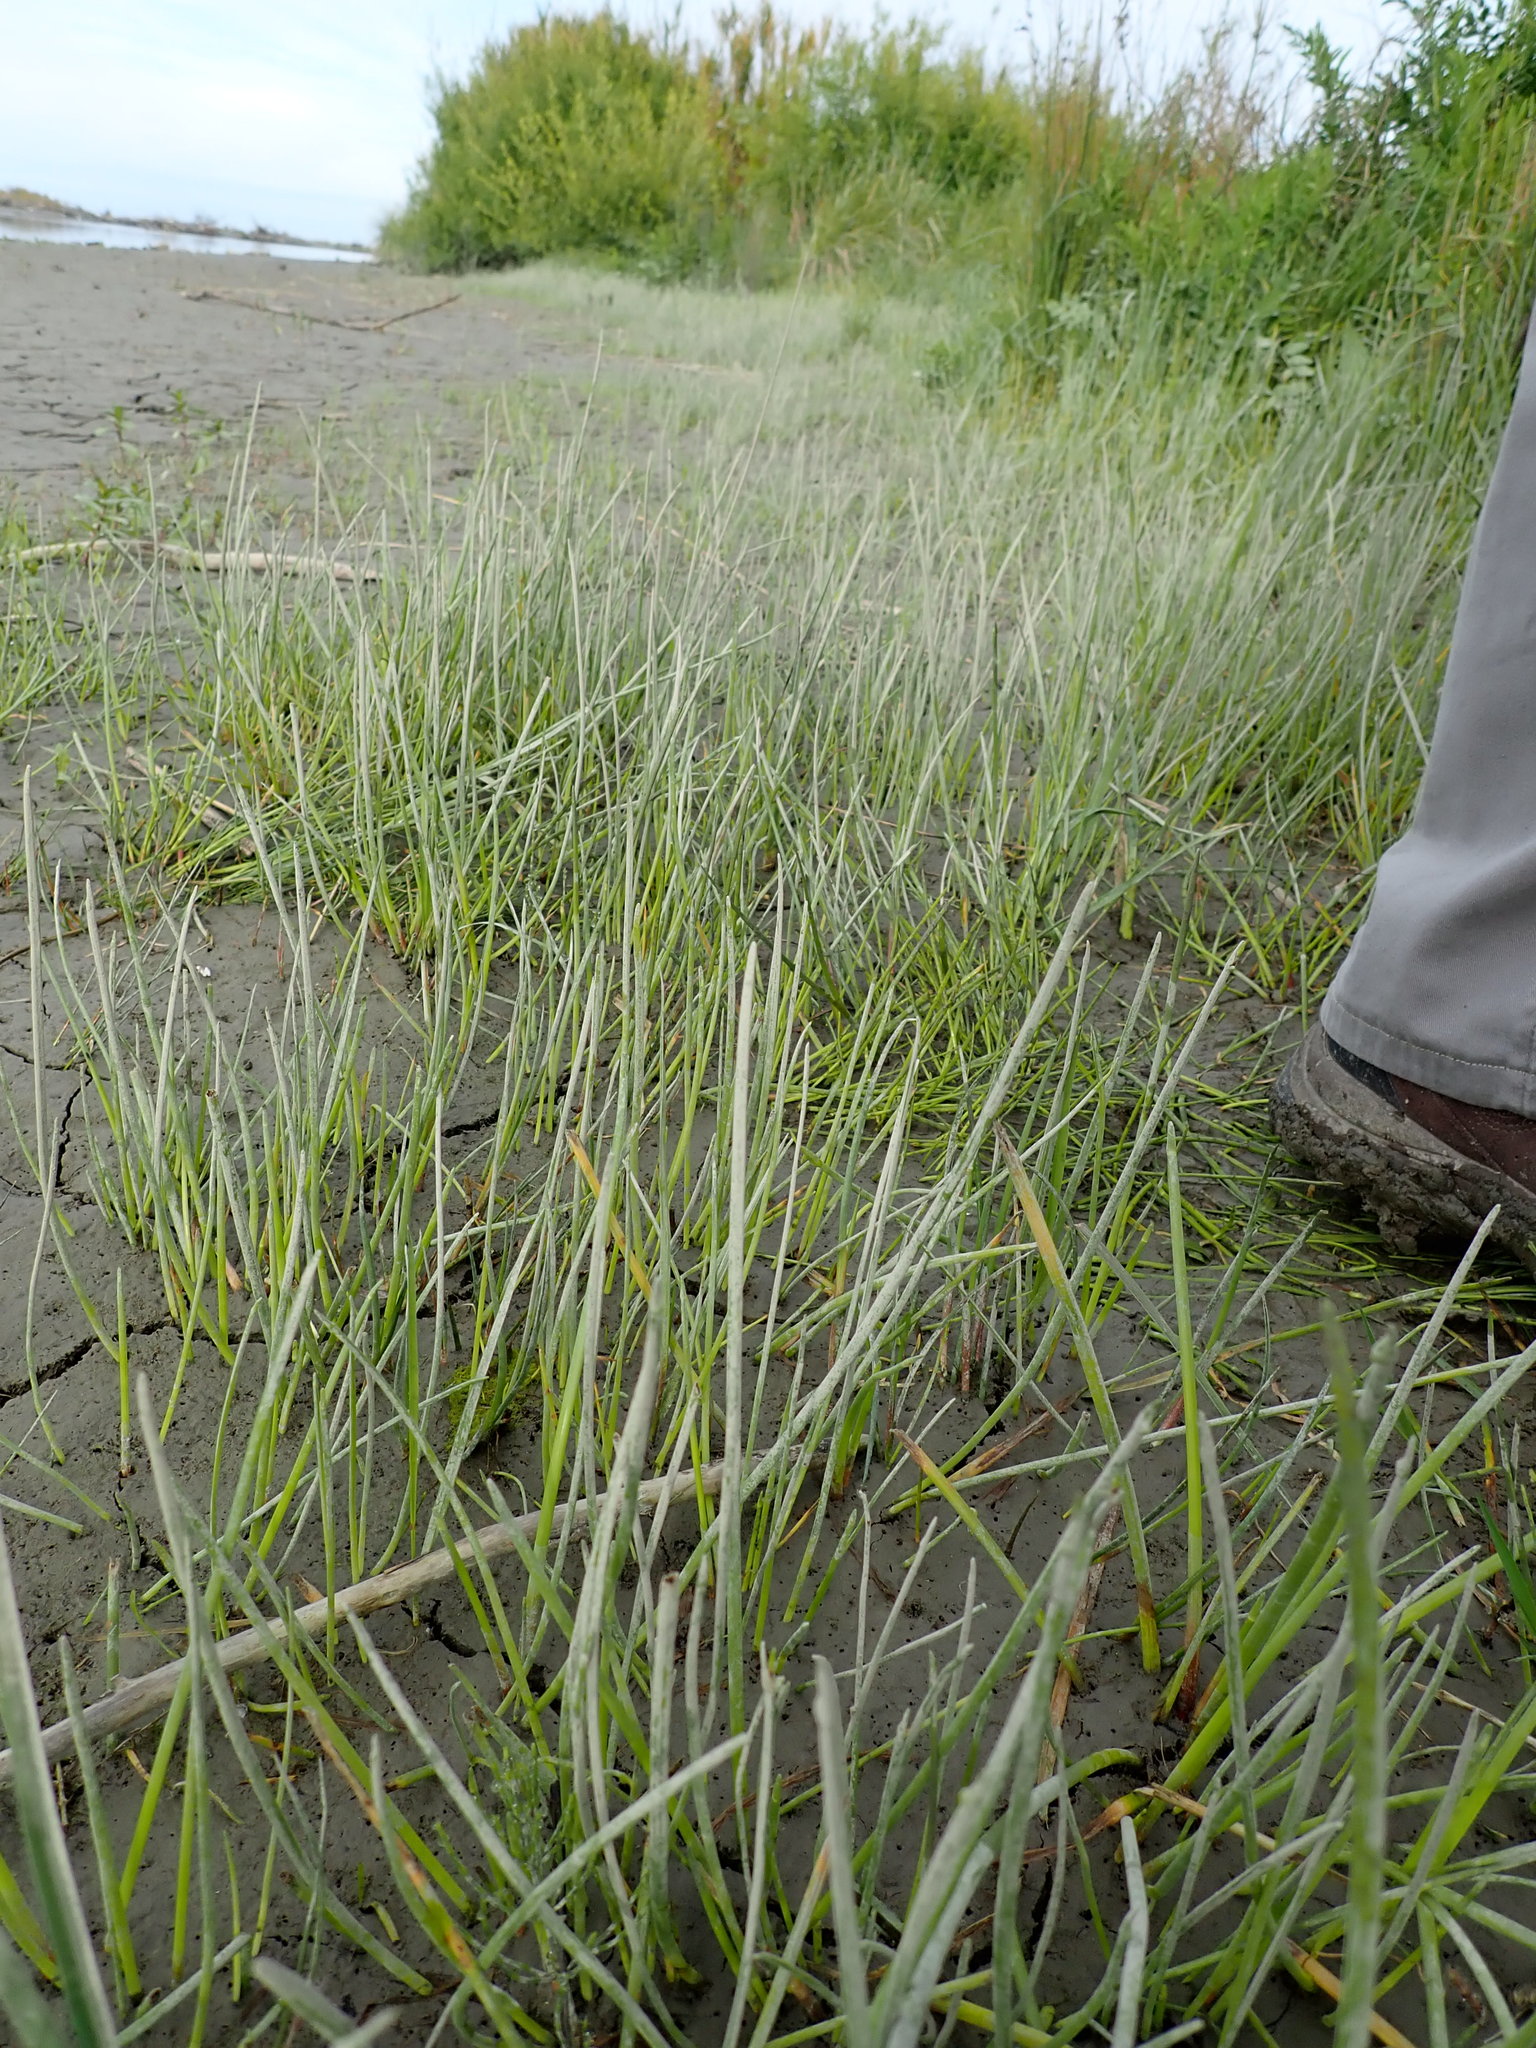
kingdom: Plantae
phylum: Tracheophyta
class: Liliopsida
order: Poales
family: Cyperaceae
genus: Isolepis
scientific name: Isolepis prolifera
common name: Proliferating bulrush
